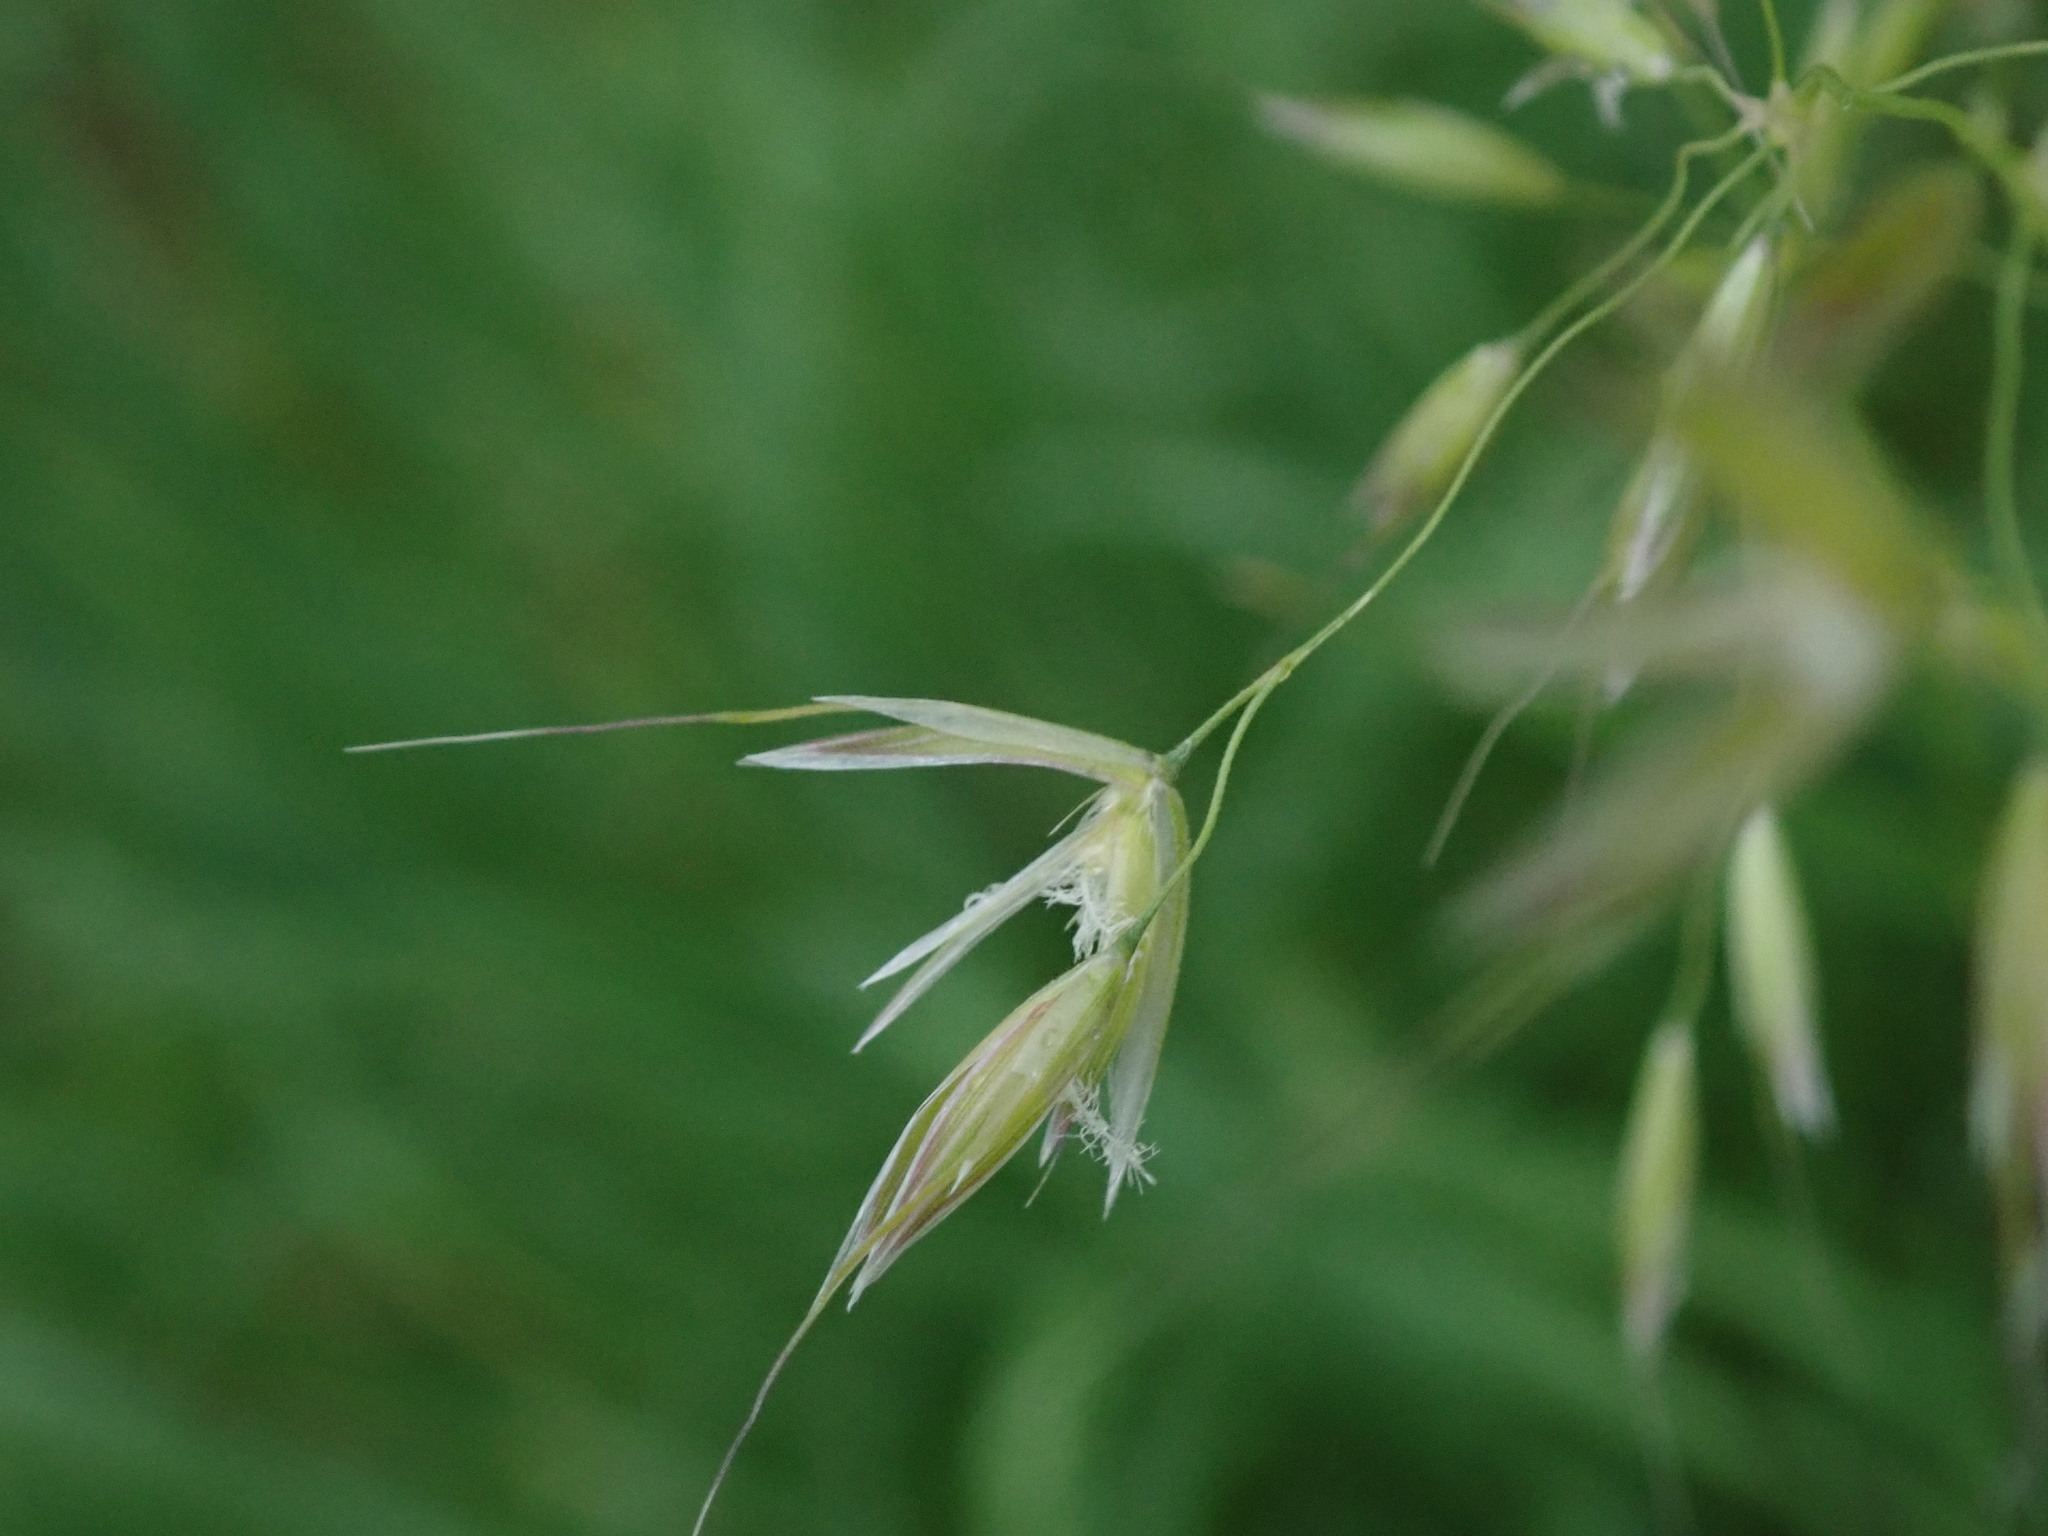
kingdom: Plantae
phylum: Tracheophyta
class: Liliopsida
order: Poales
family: Poaceae
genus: Arrhenatherum
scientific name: Arrhenatherum elatius
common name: Tall oatgrass
